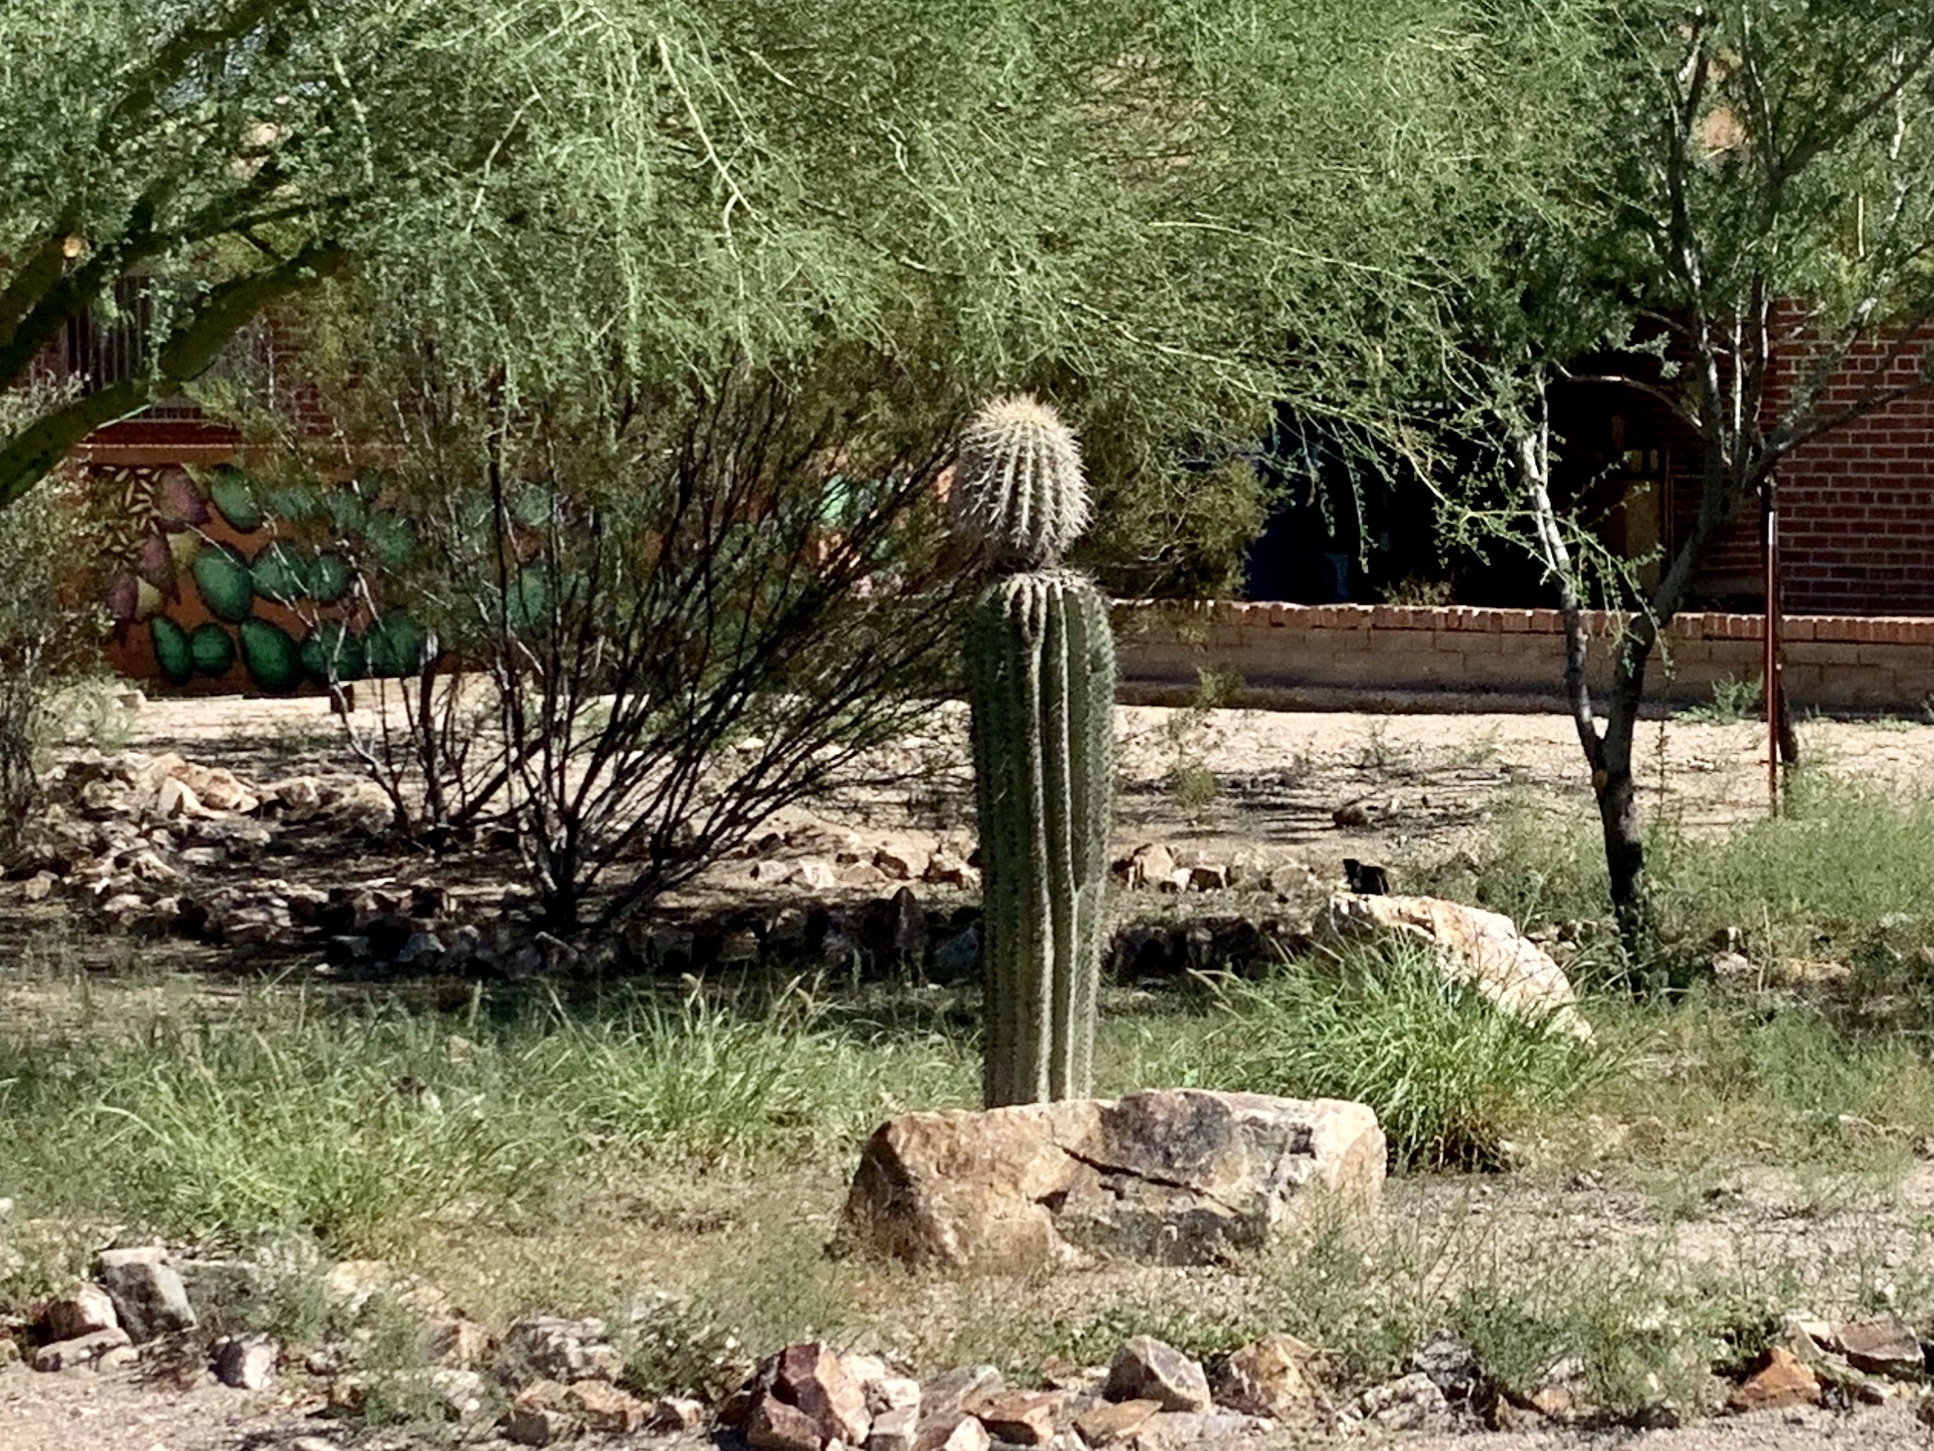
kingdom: Plantae
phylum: Tracheophyta
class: Magnoliopsida
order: Caryophyllales
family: Cactaceae
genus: Carnegiea
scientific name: Carnegiea gigantea
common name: Saguaro
